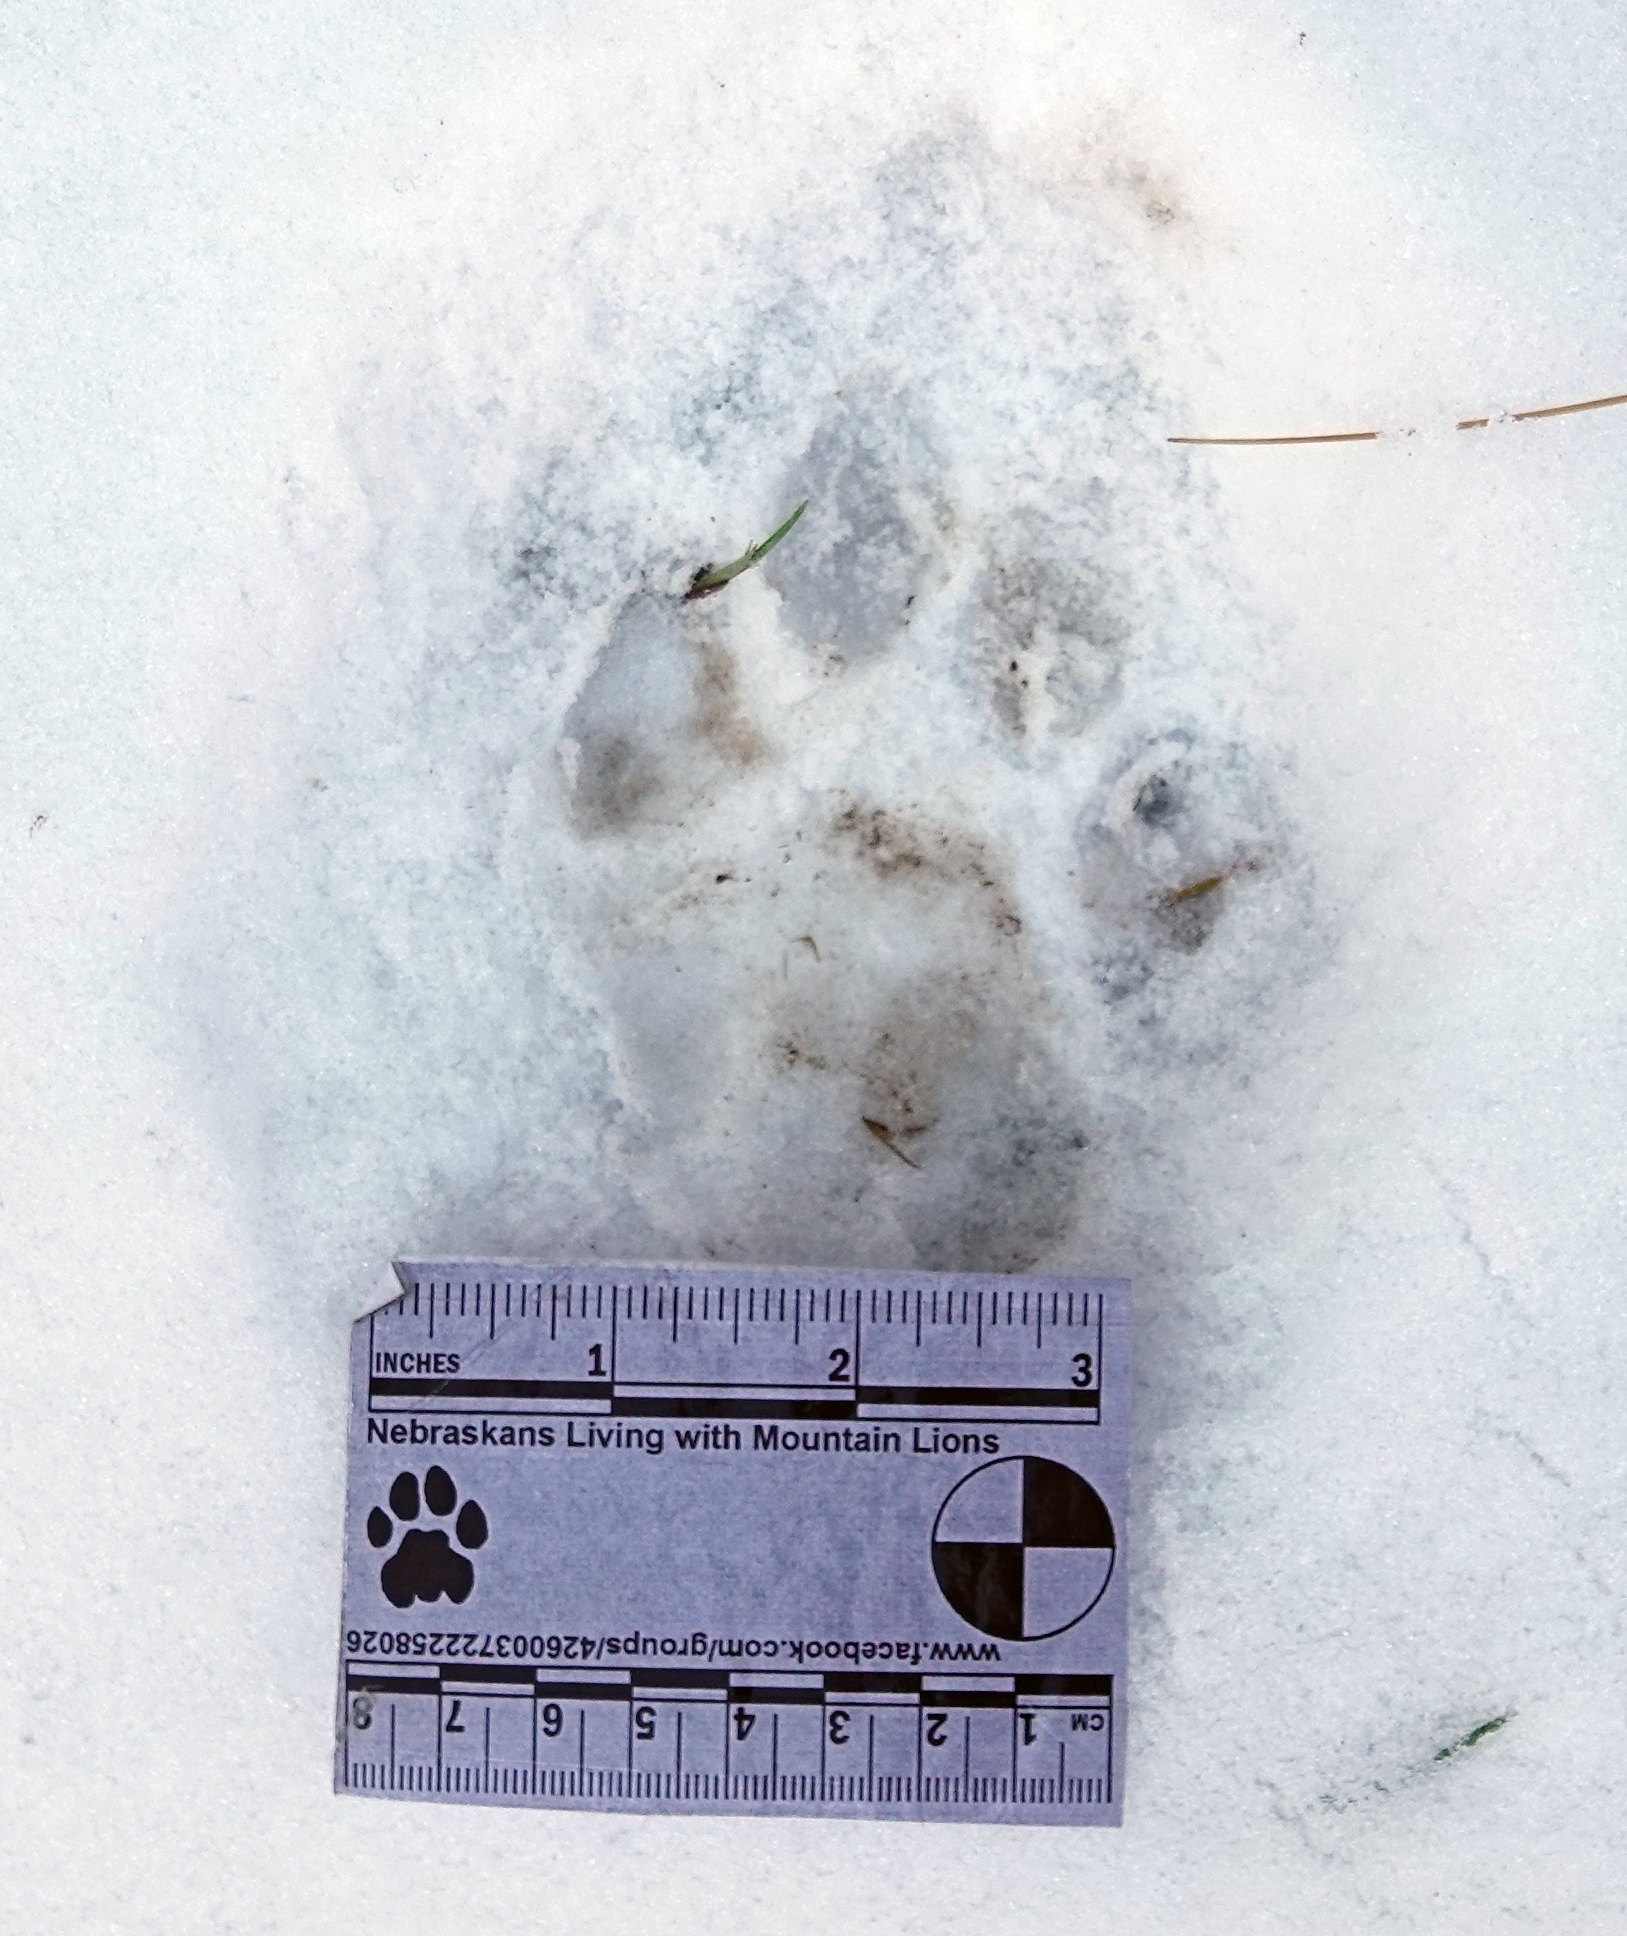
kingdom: Animalia
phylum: Chordata
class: Mammalia
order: Carnivora
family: Felidae
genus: Puma
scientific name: Puma concolor
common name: Puma
